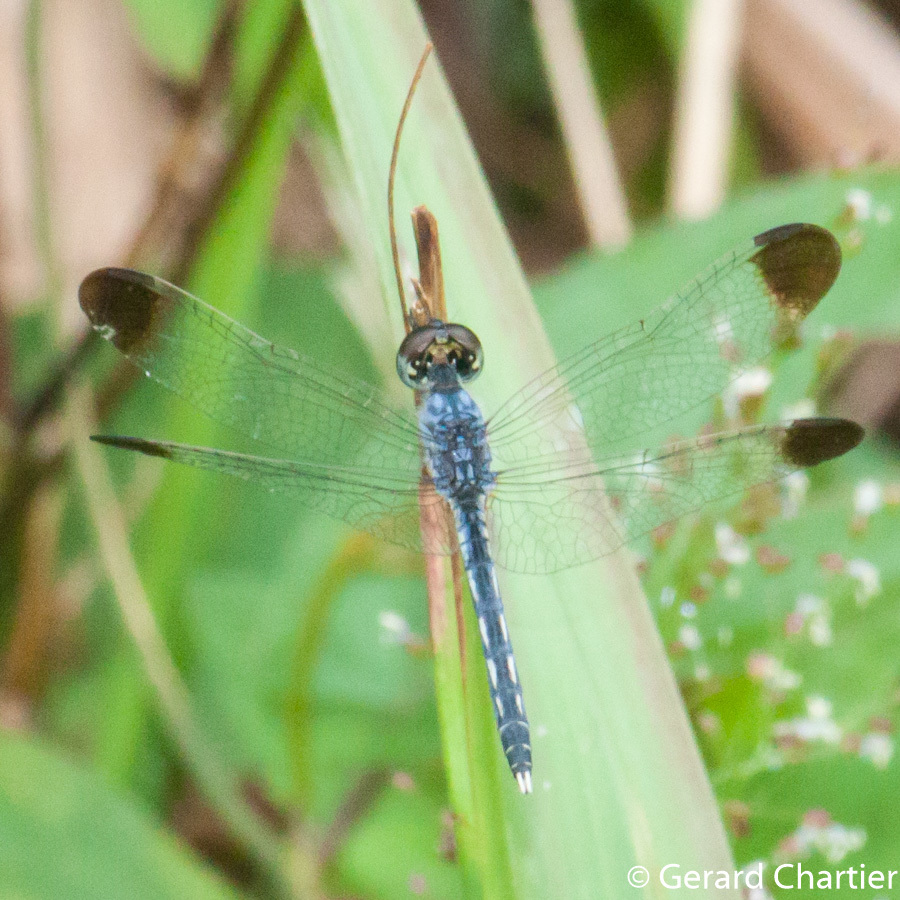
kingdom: Animalia
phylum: Arthropoda
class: Insecta
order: Odonata
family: Libellulidae
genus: Diplacodes
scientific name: Diplacodes nebulosa
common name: Black-tipped percher
